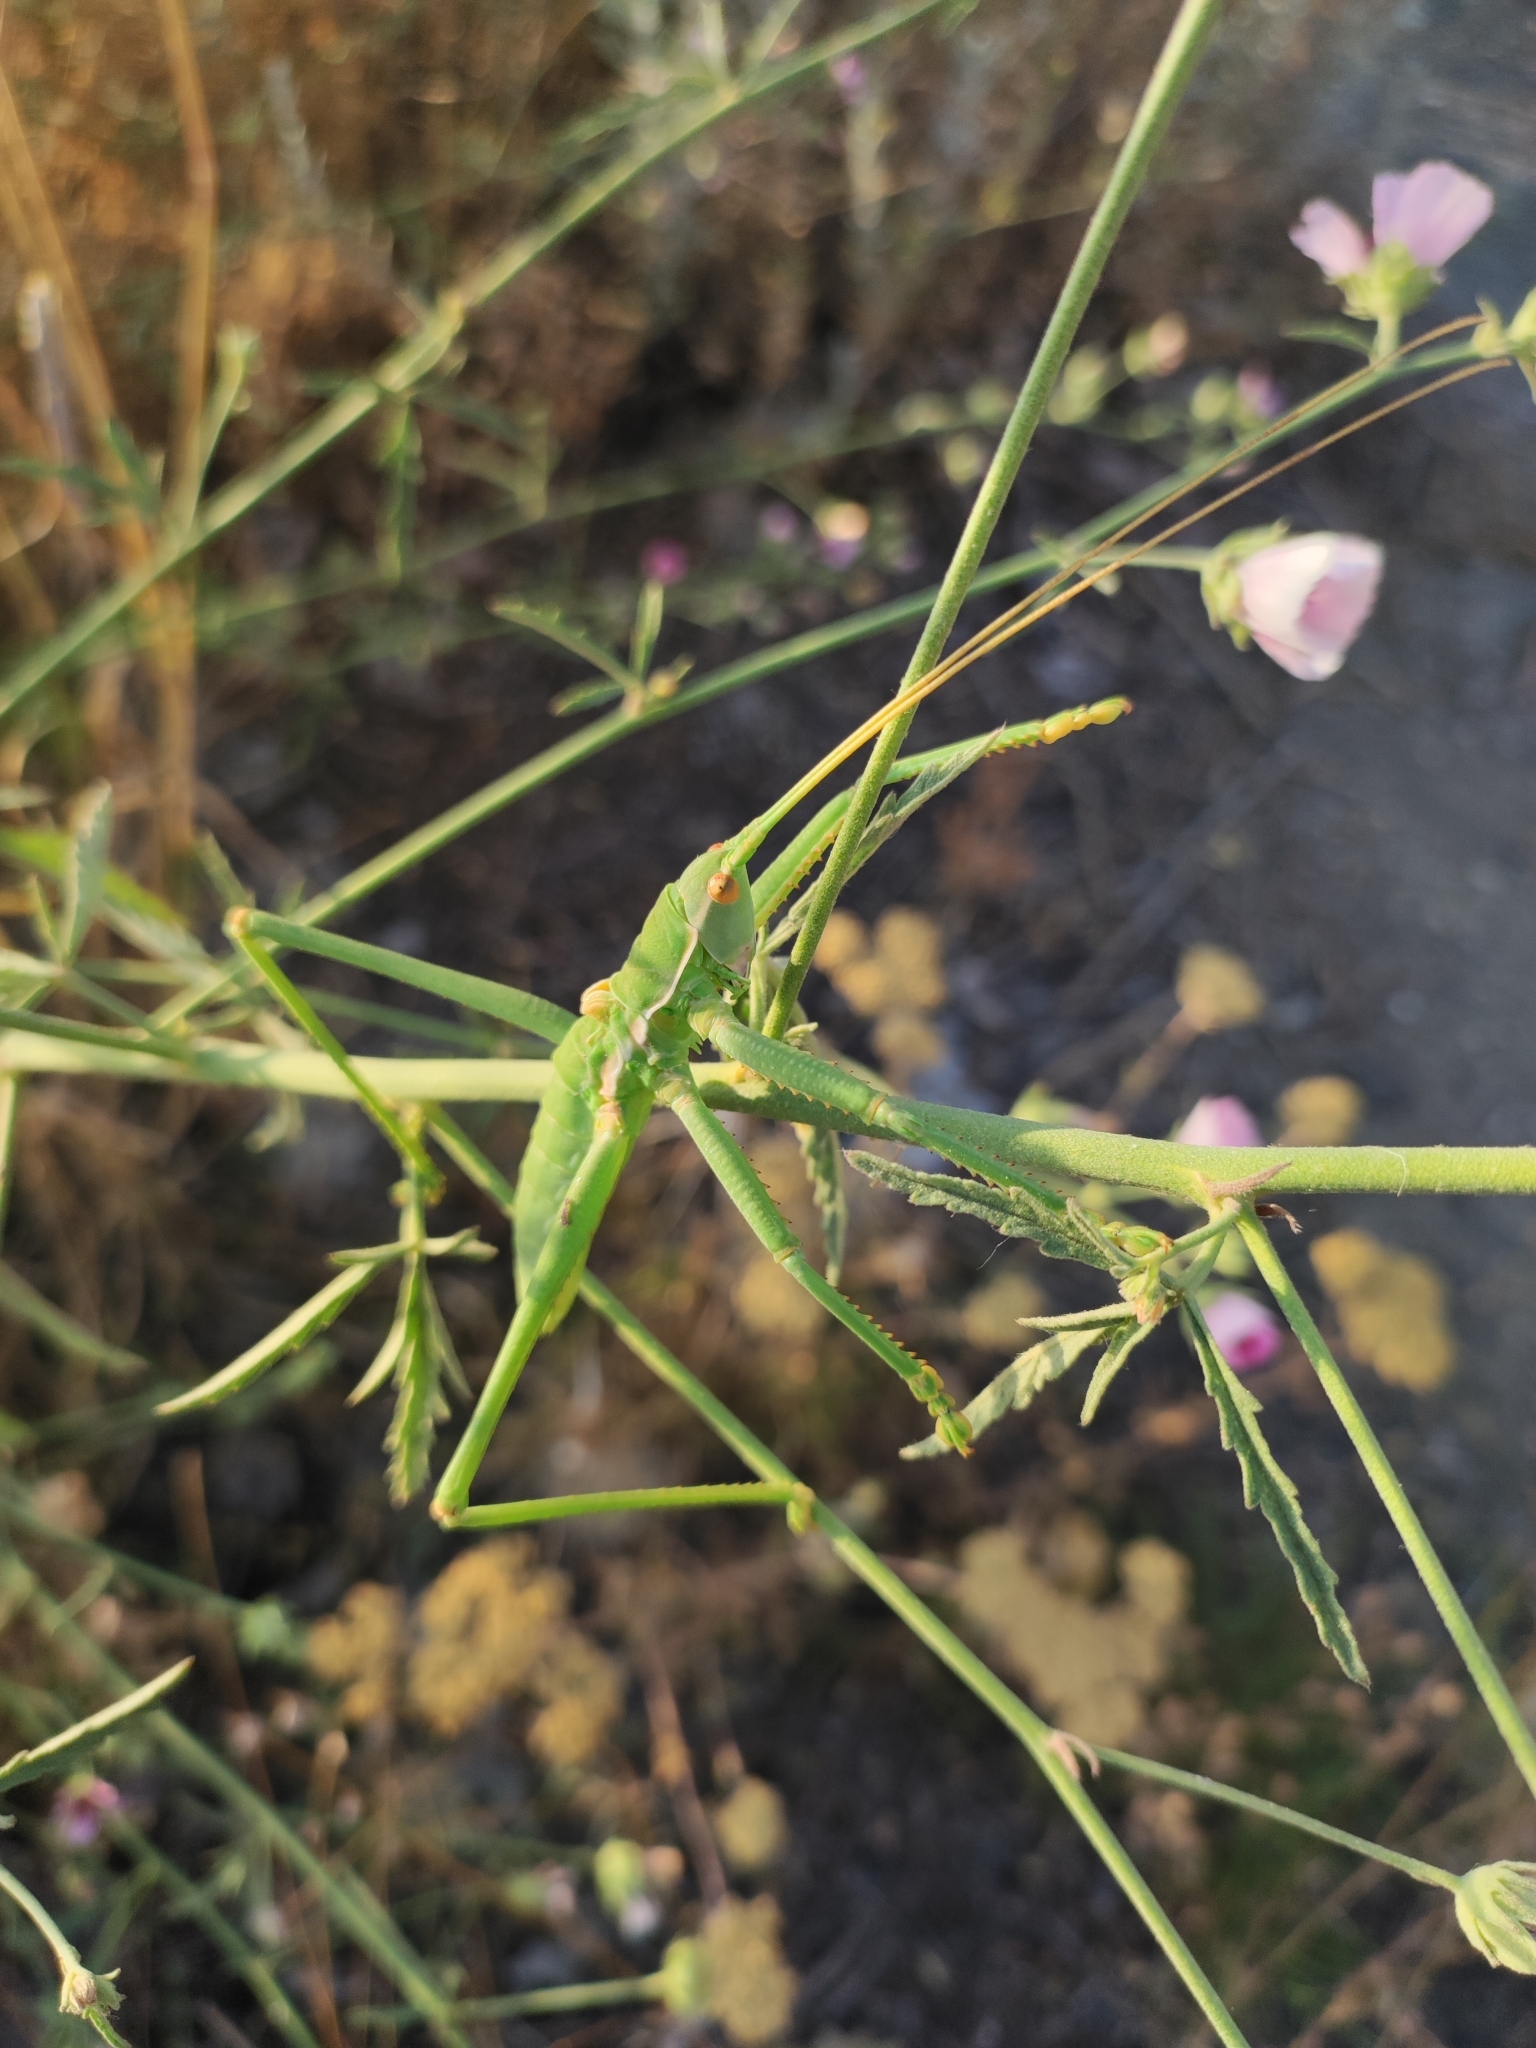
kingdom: Animalia
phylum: Arthropoda
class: Insecta
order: Orthoptera
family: Tettigoniidae
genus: Saga
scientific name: Saga pedo
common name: Common predatory bush-cricket
